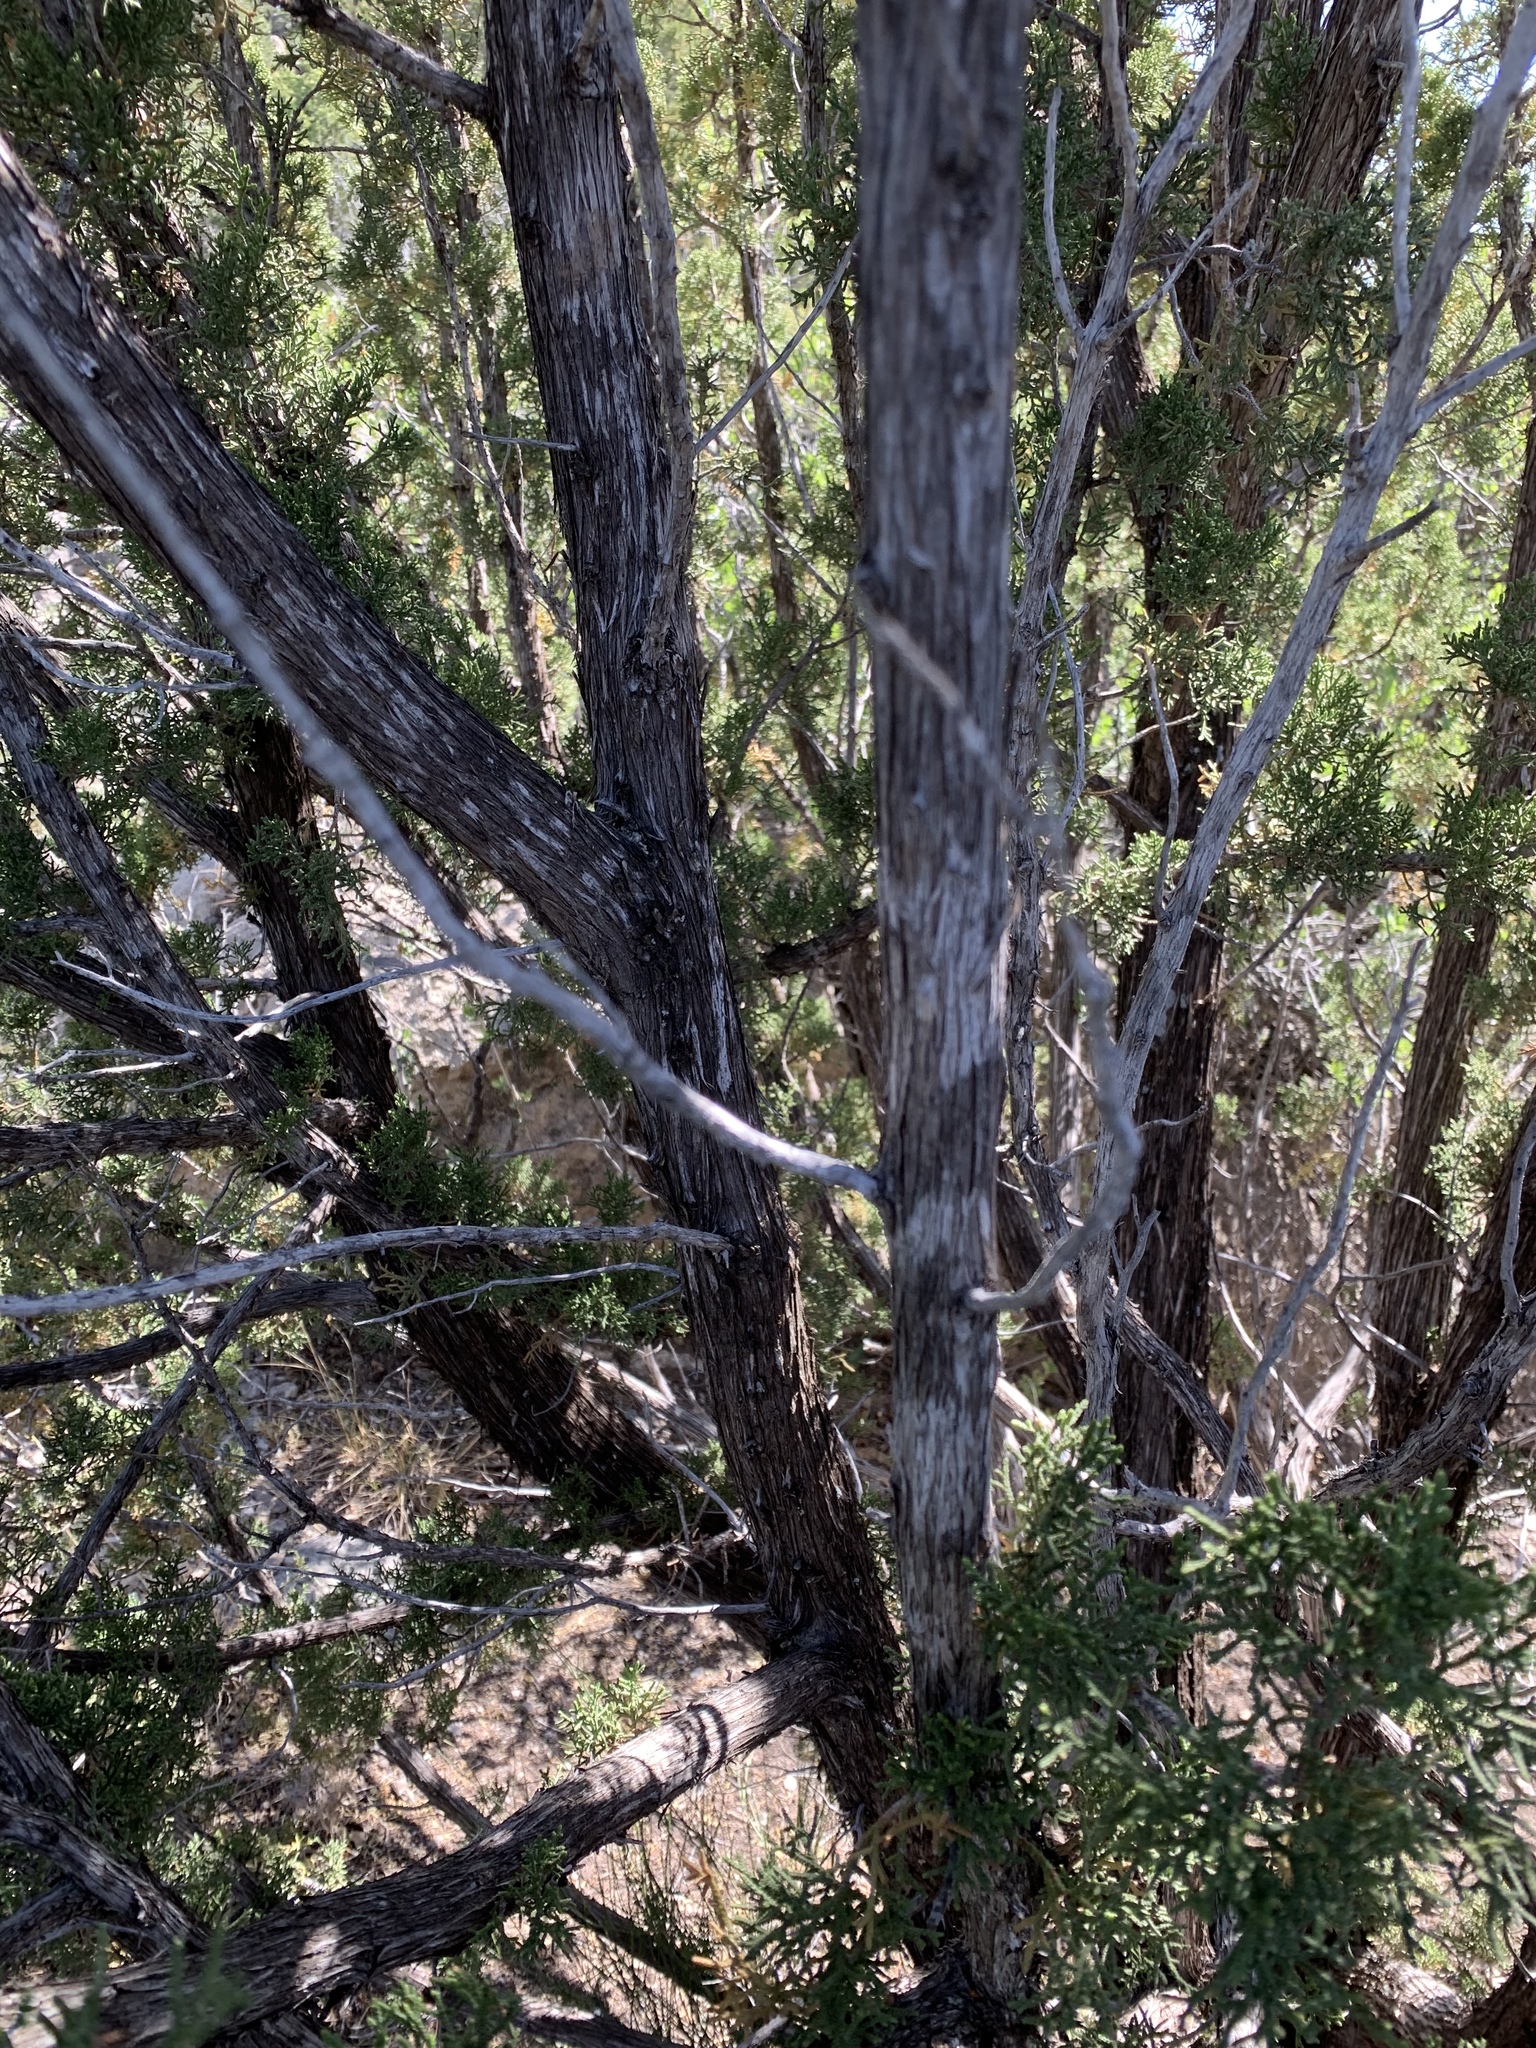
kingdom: Plantae
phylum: Tracheophyta
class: Pinopsida
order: Pinales
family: Cupressaceae
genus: Juniperus
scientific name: Juniperus monosperma
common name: One-seed juniper
